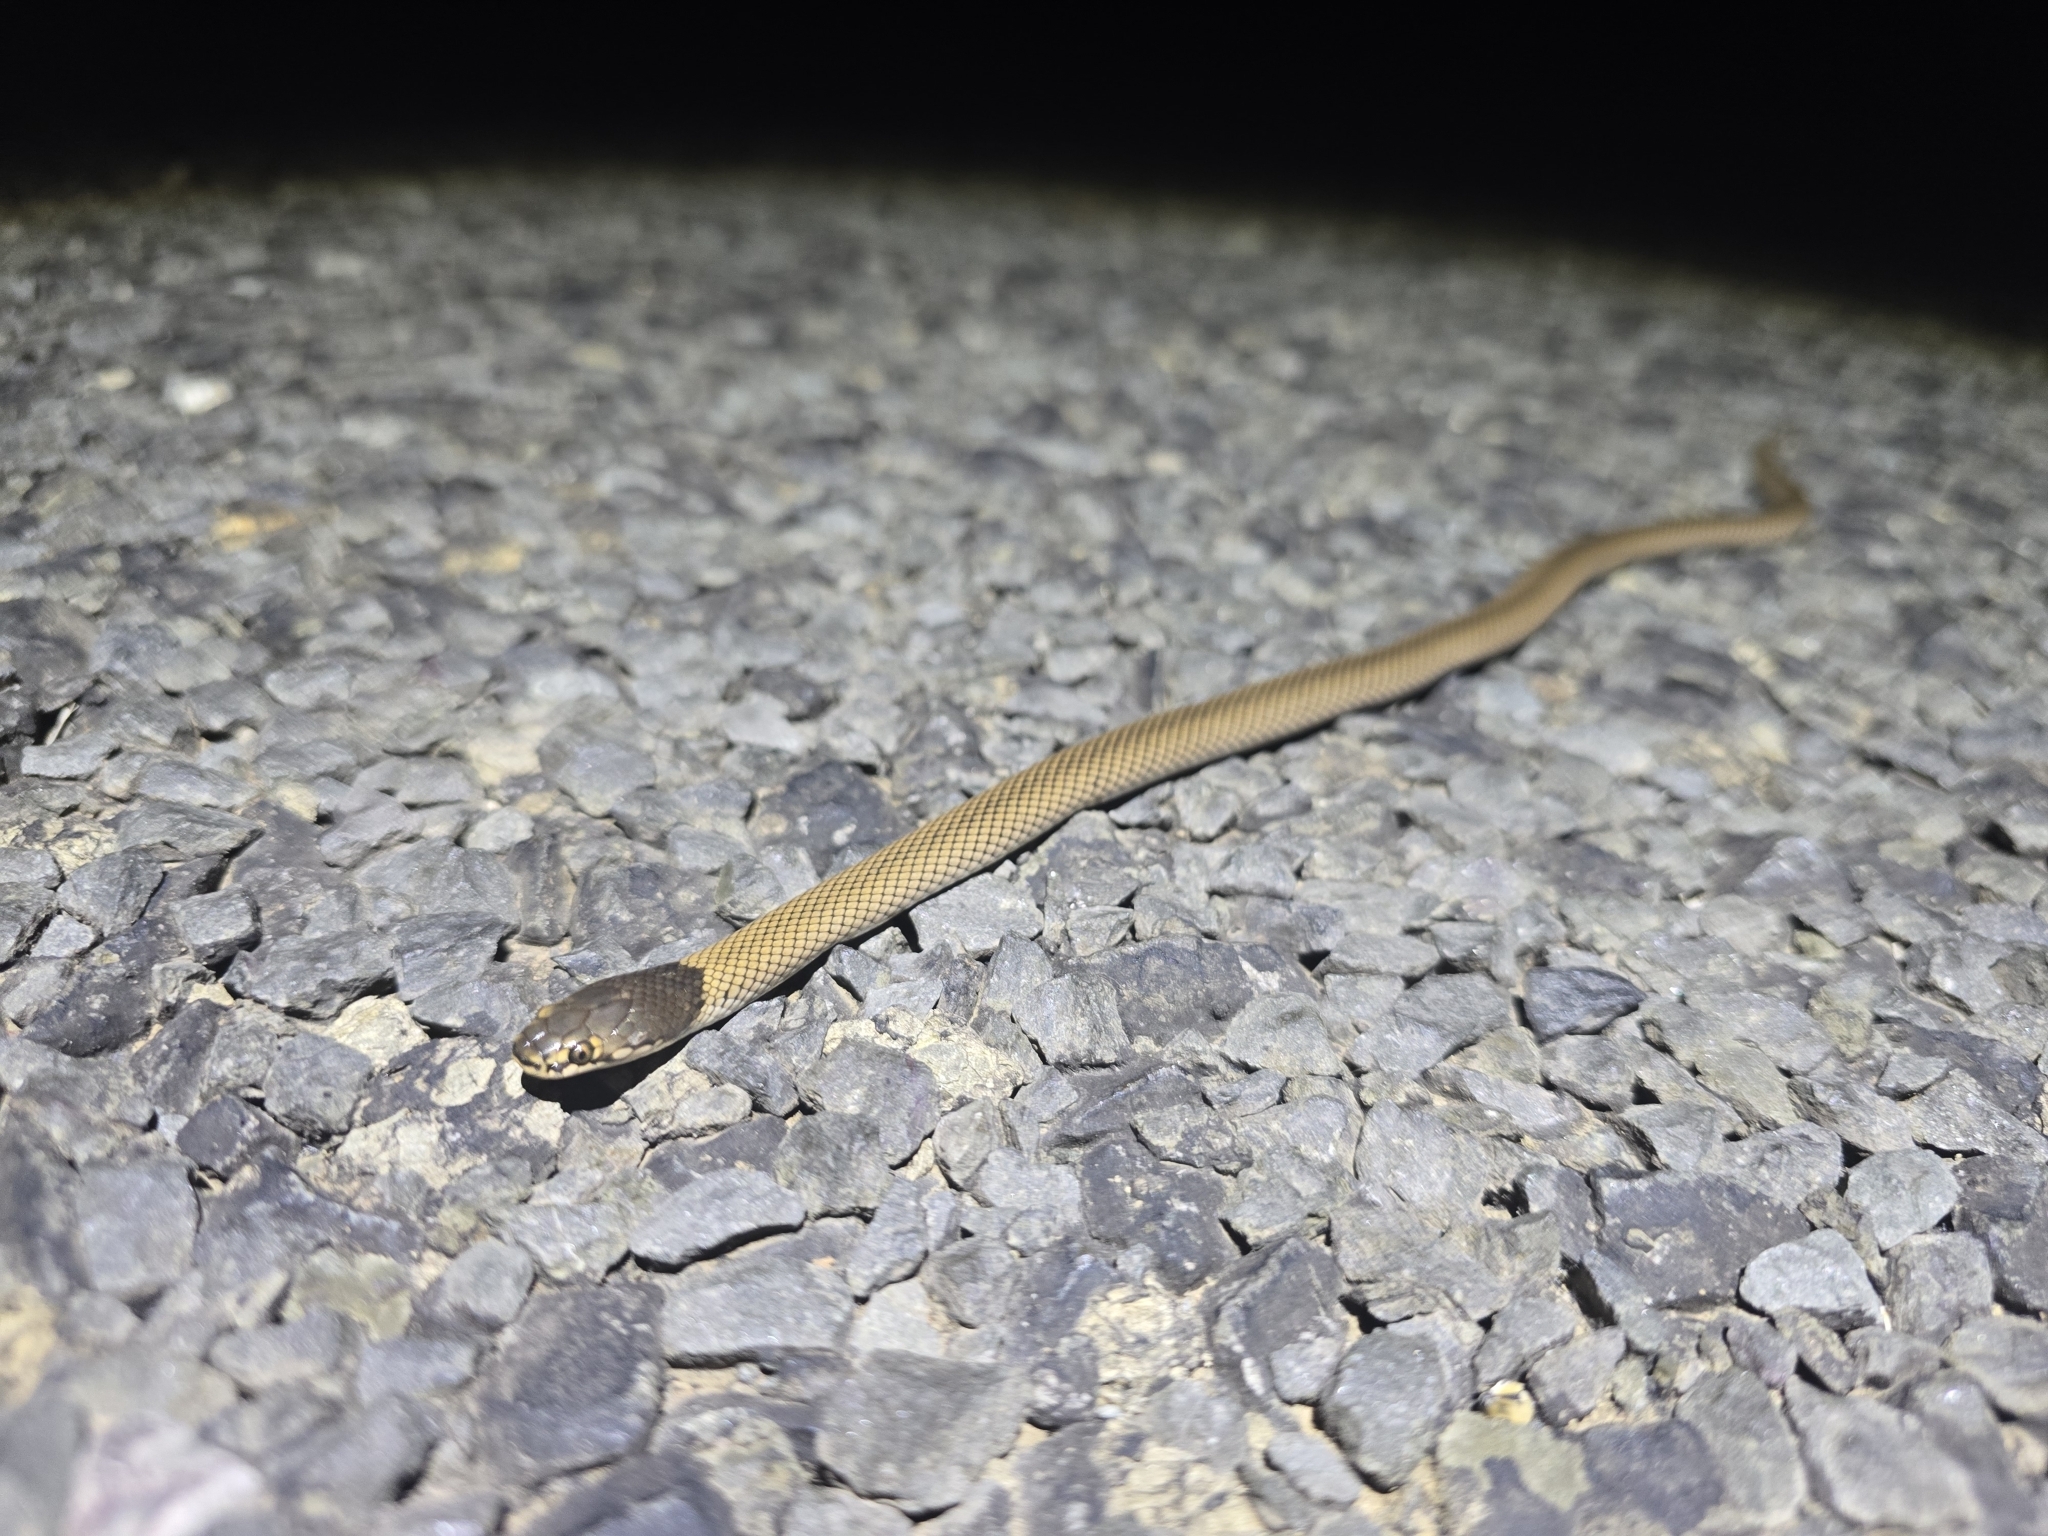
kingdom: Animalia
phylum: Chordata
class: Squamata
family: Elapidae
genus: Suta
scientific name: Suta suta
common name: Curl snake
